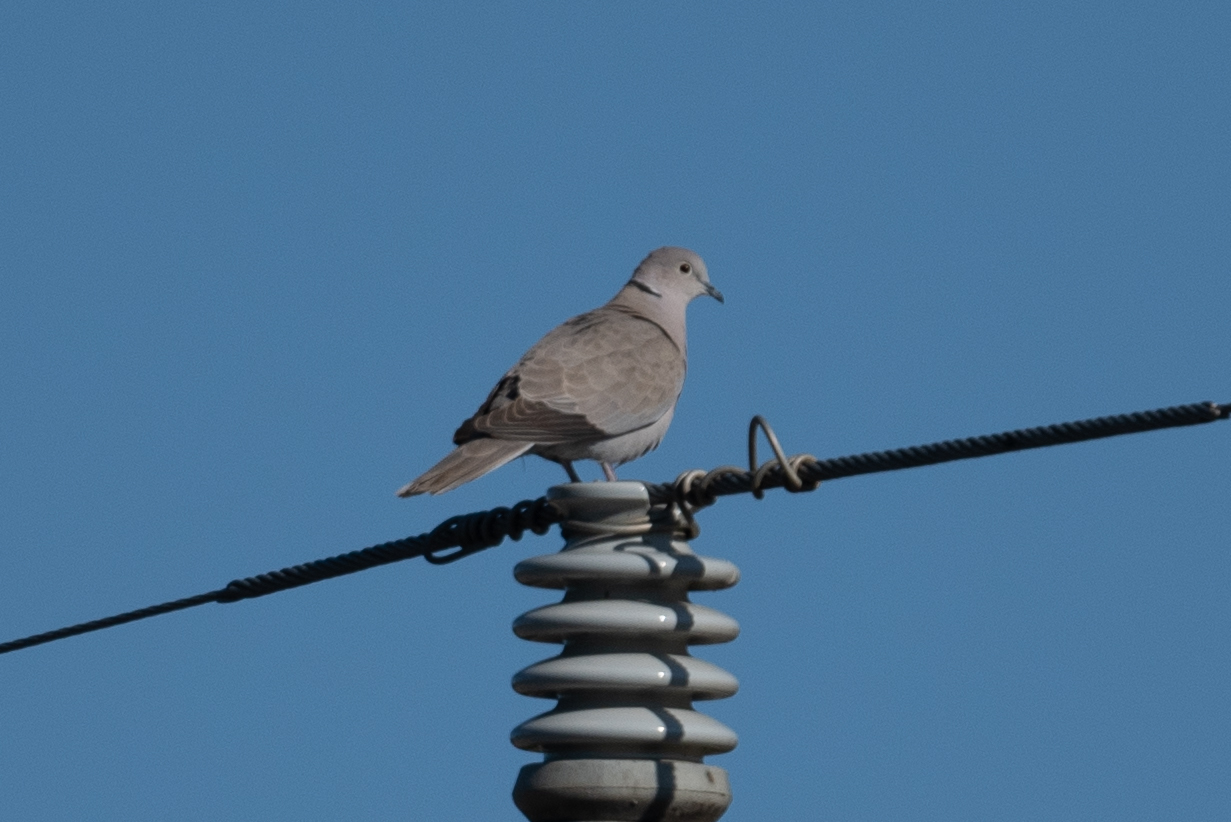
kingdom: Animalia
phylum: Chordata
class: Aves
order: Columbiformes
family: Columbidae
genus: Streptopelia
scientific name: Streptopelia decaocto
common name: Eurasian collared dove
